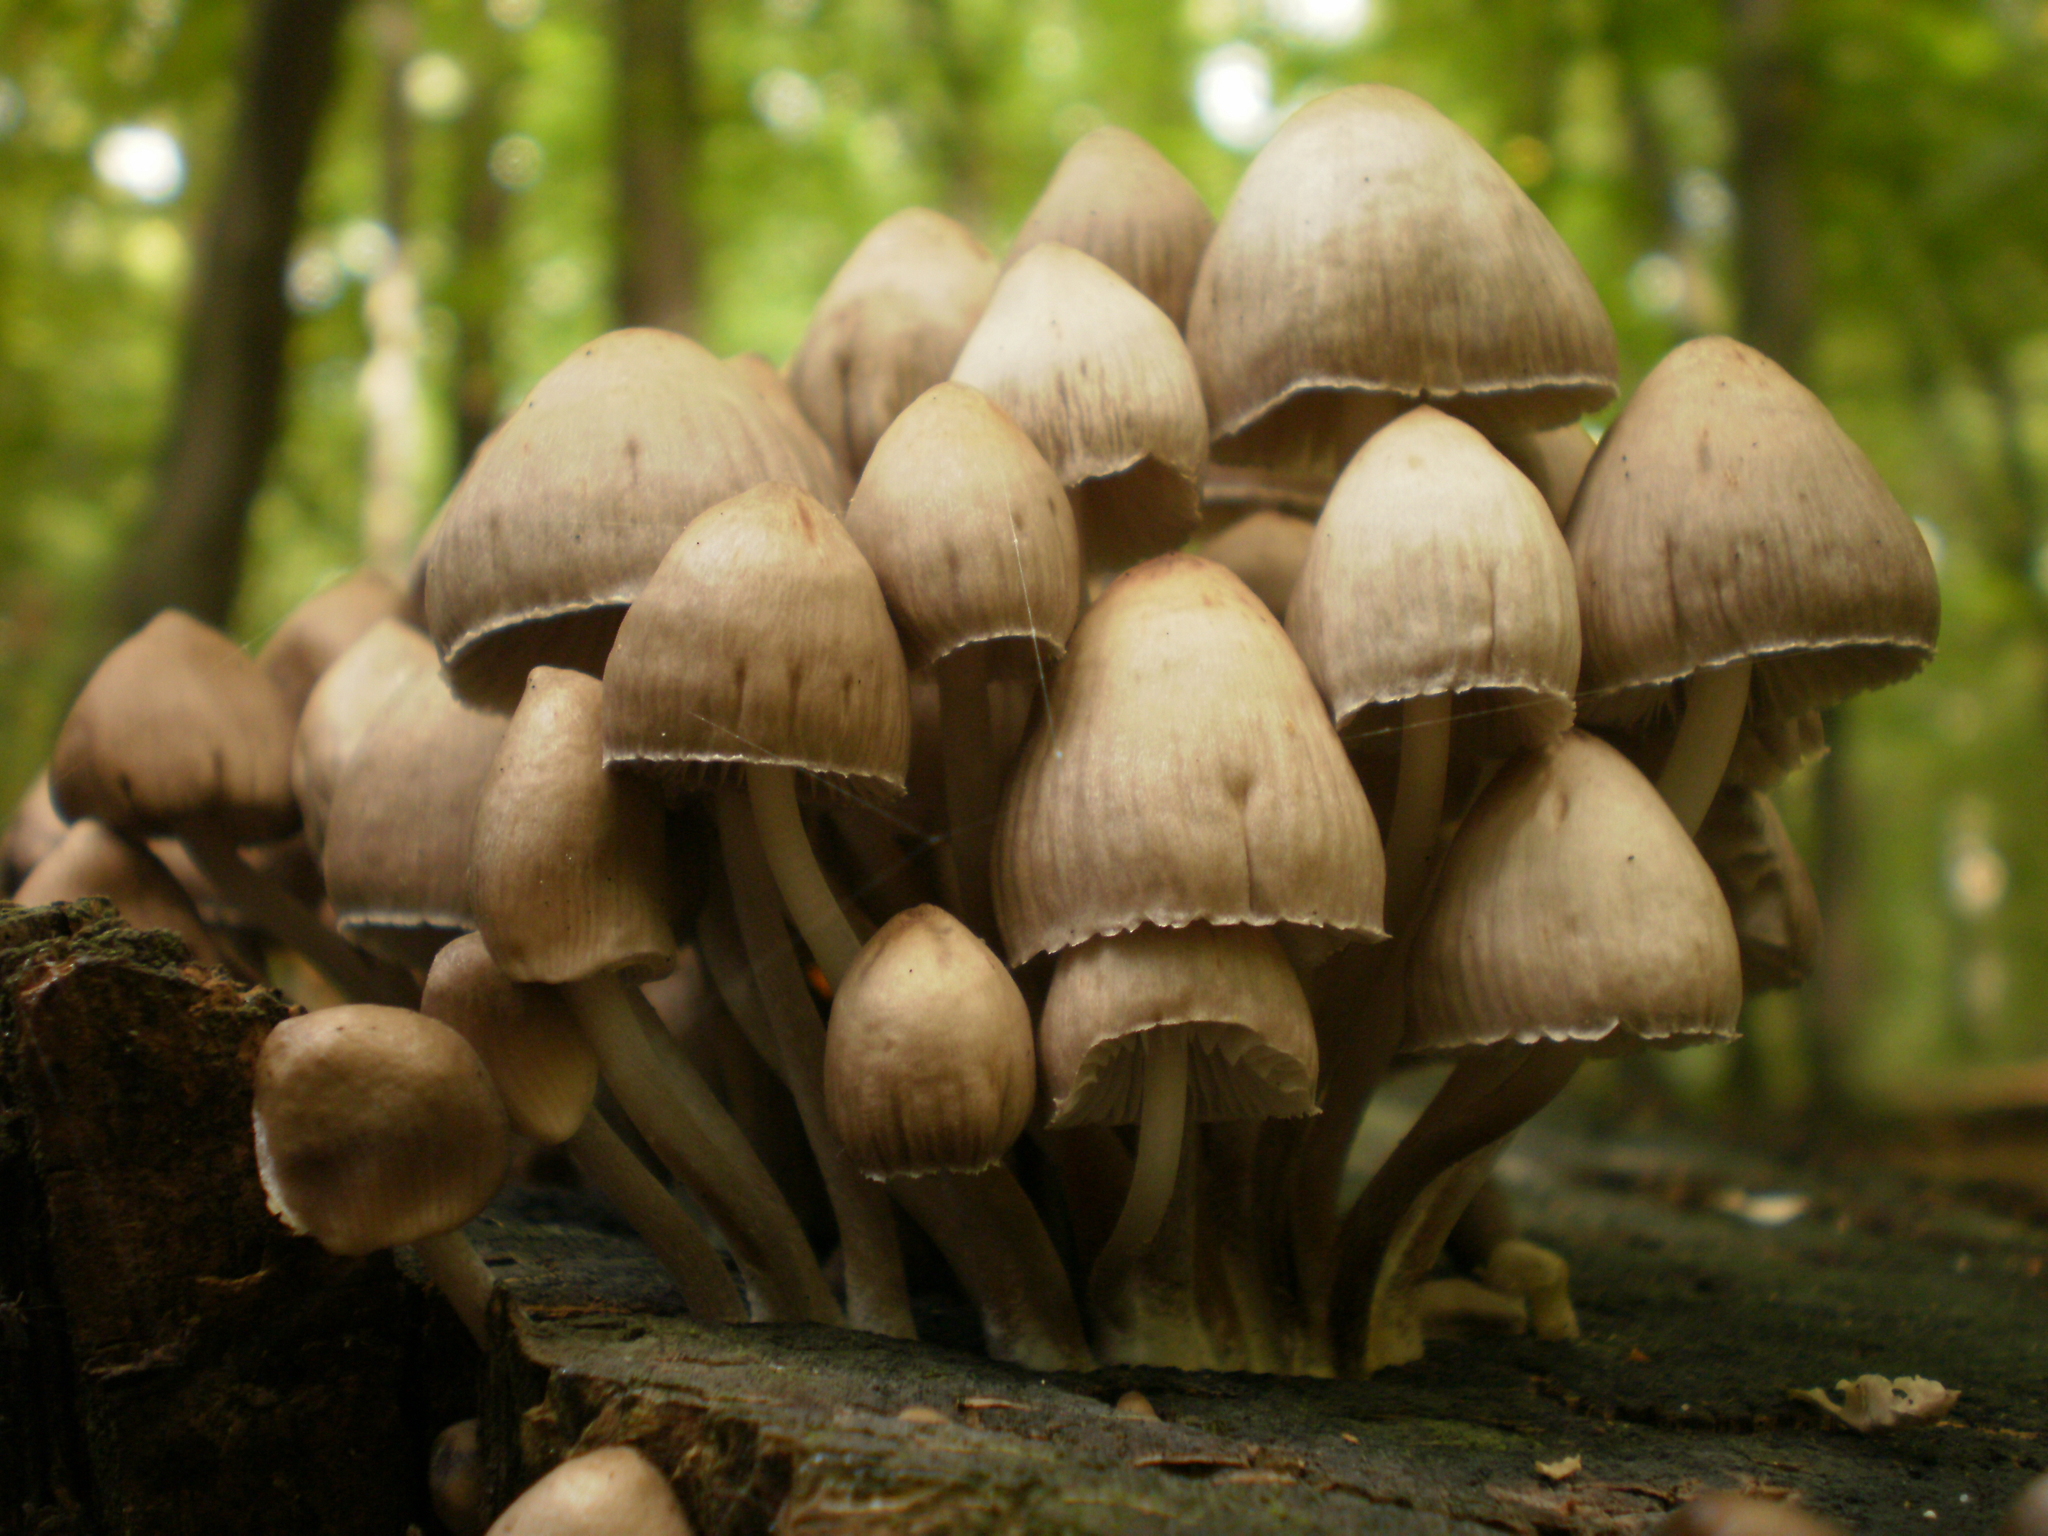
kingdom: Fungi
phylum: Basidiomycota
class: Agaricomycetes
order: Agaricales
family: Psathyrellaceae
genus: Coprinellus
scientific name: Coprinellus micaceus
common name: Glistening ink-cap
